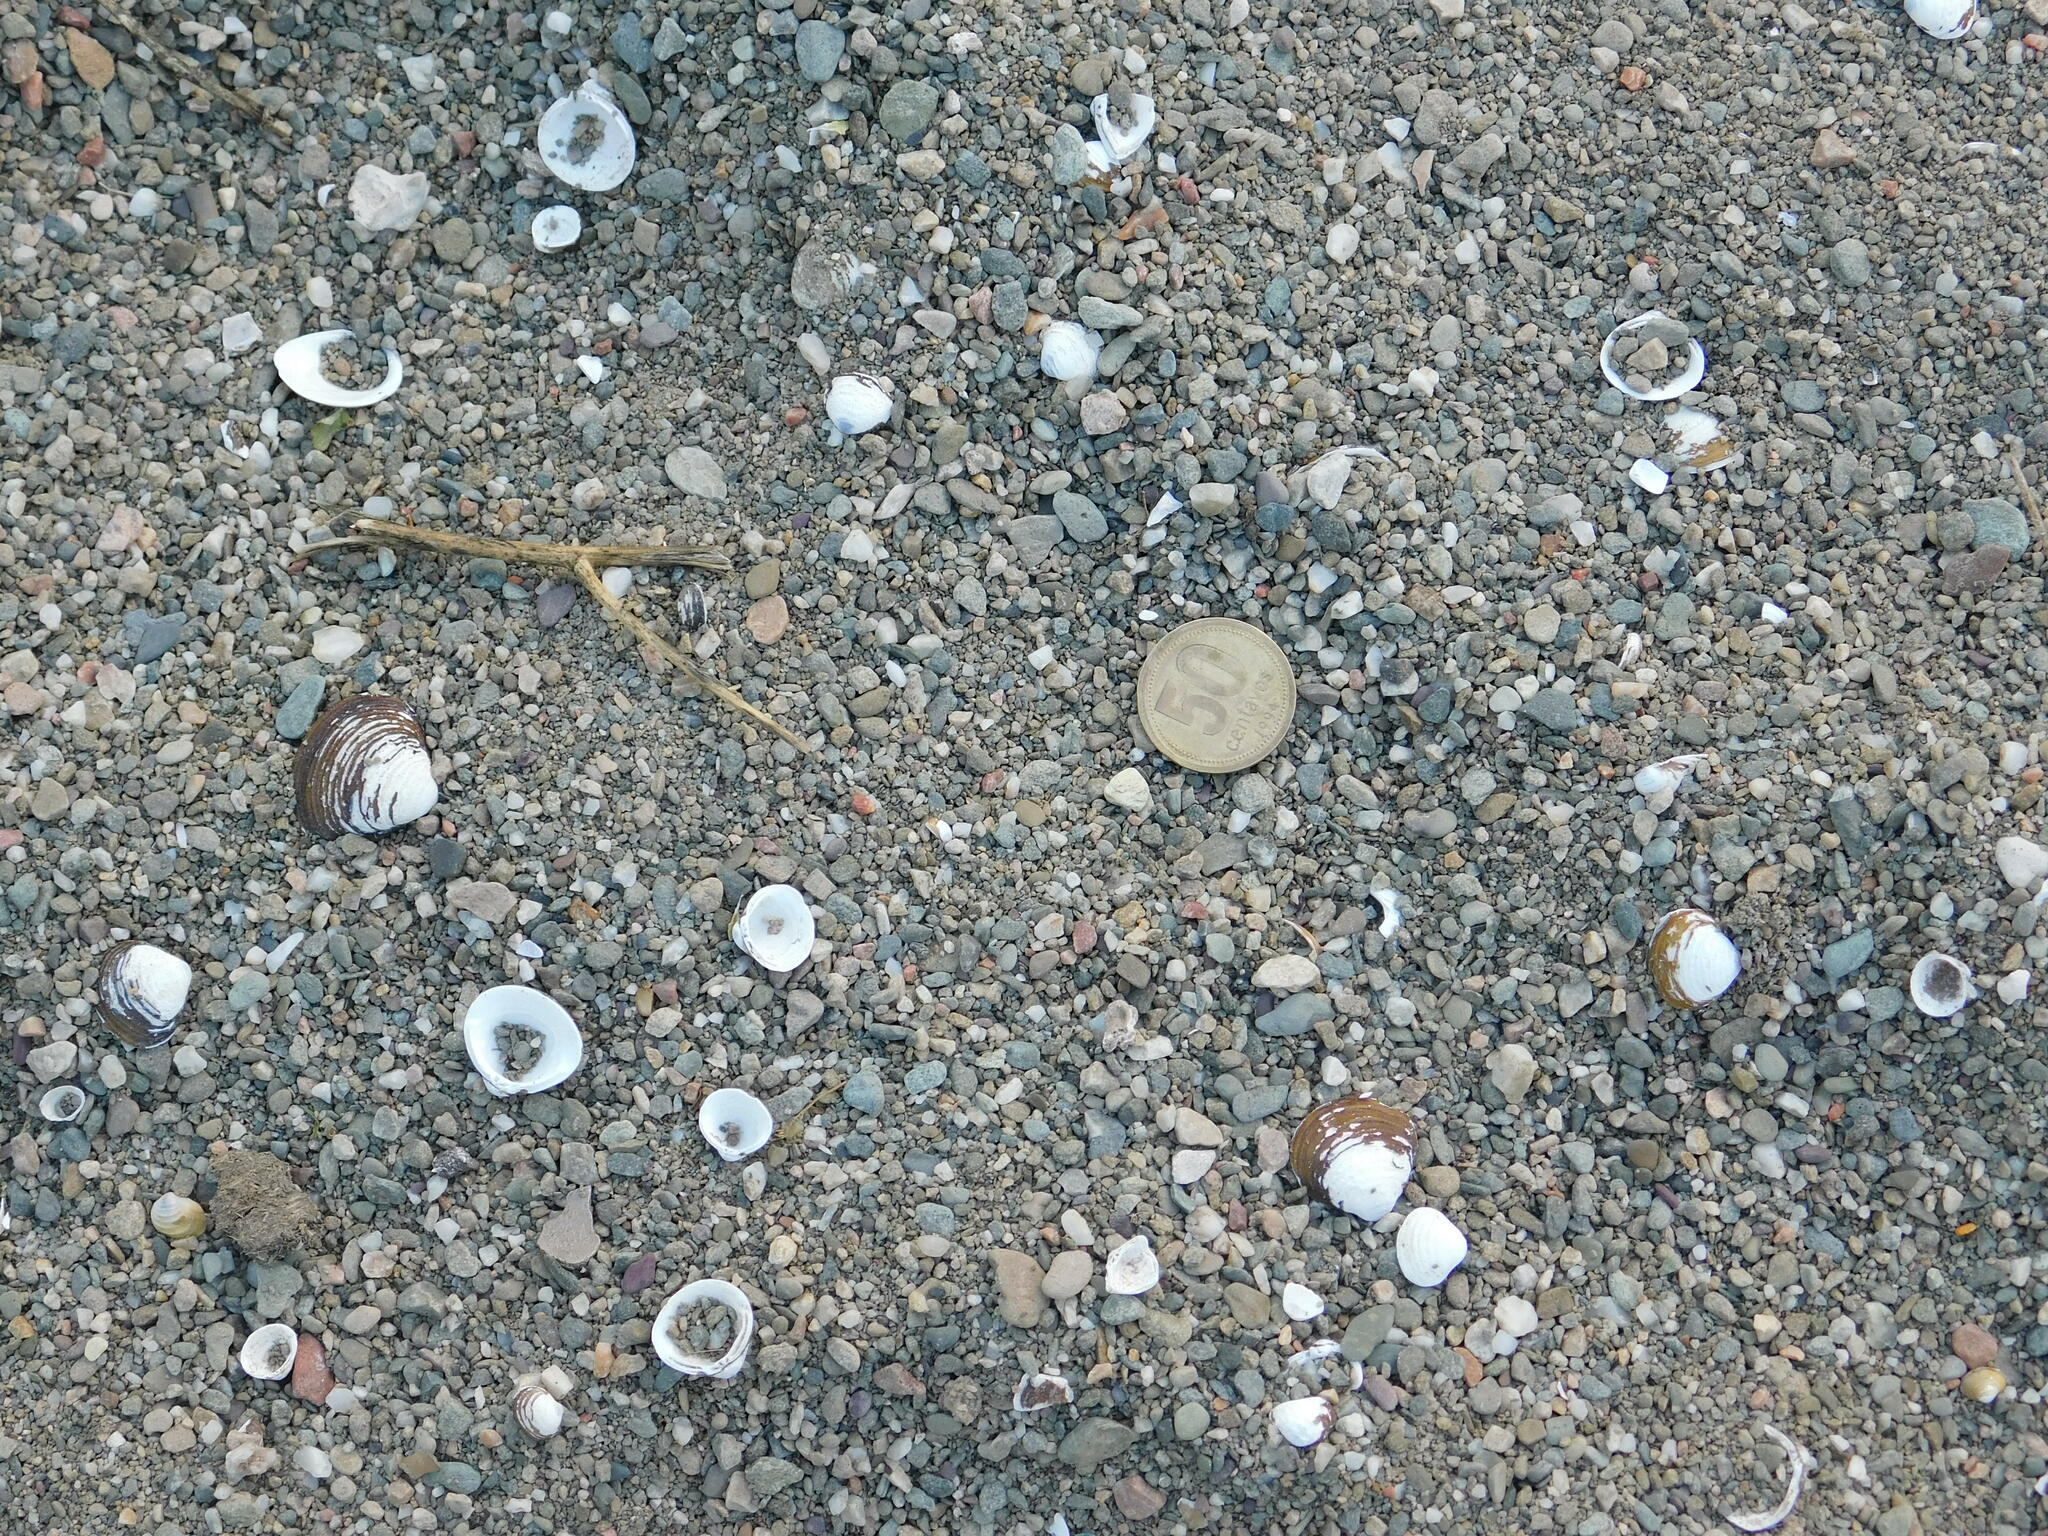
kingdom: Animalia
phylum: Mollusca
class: Bivalvia
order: Venerida
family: Cyrenidae
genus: Corbicula
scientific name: Corbicula fluminea
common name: Asian clam
